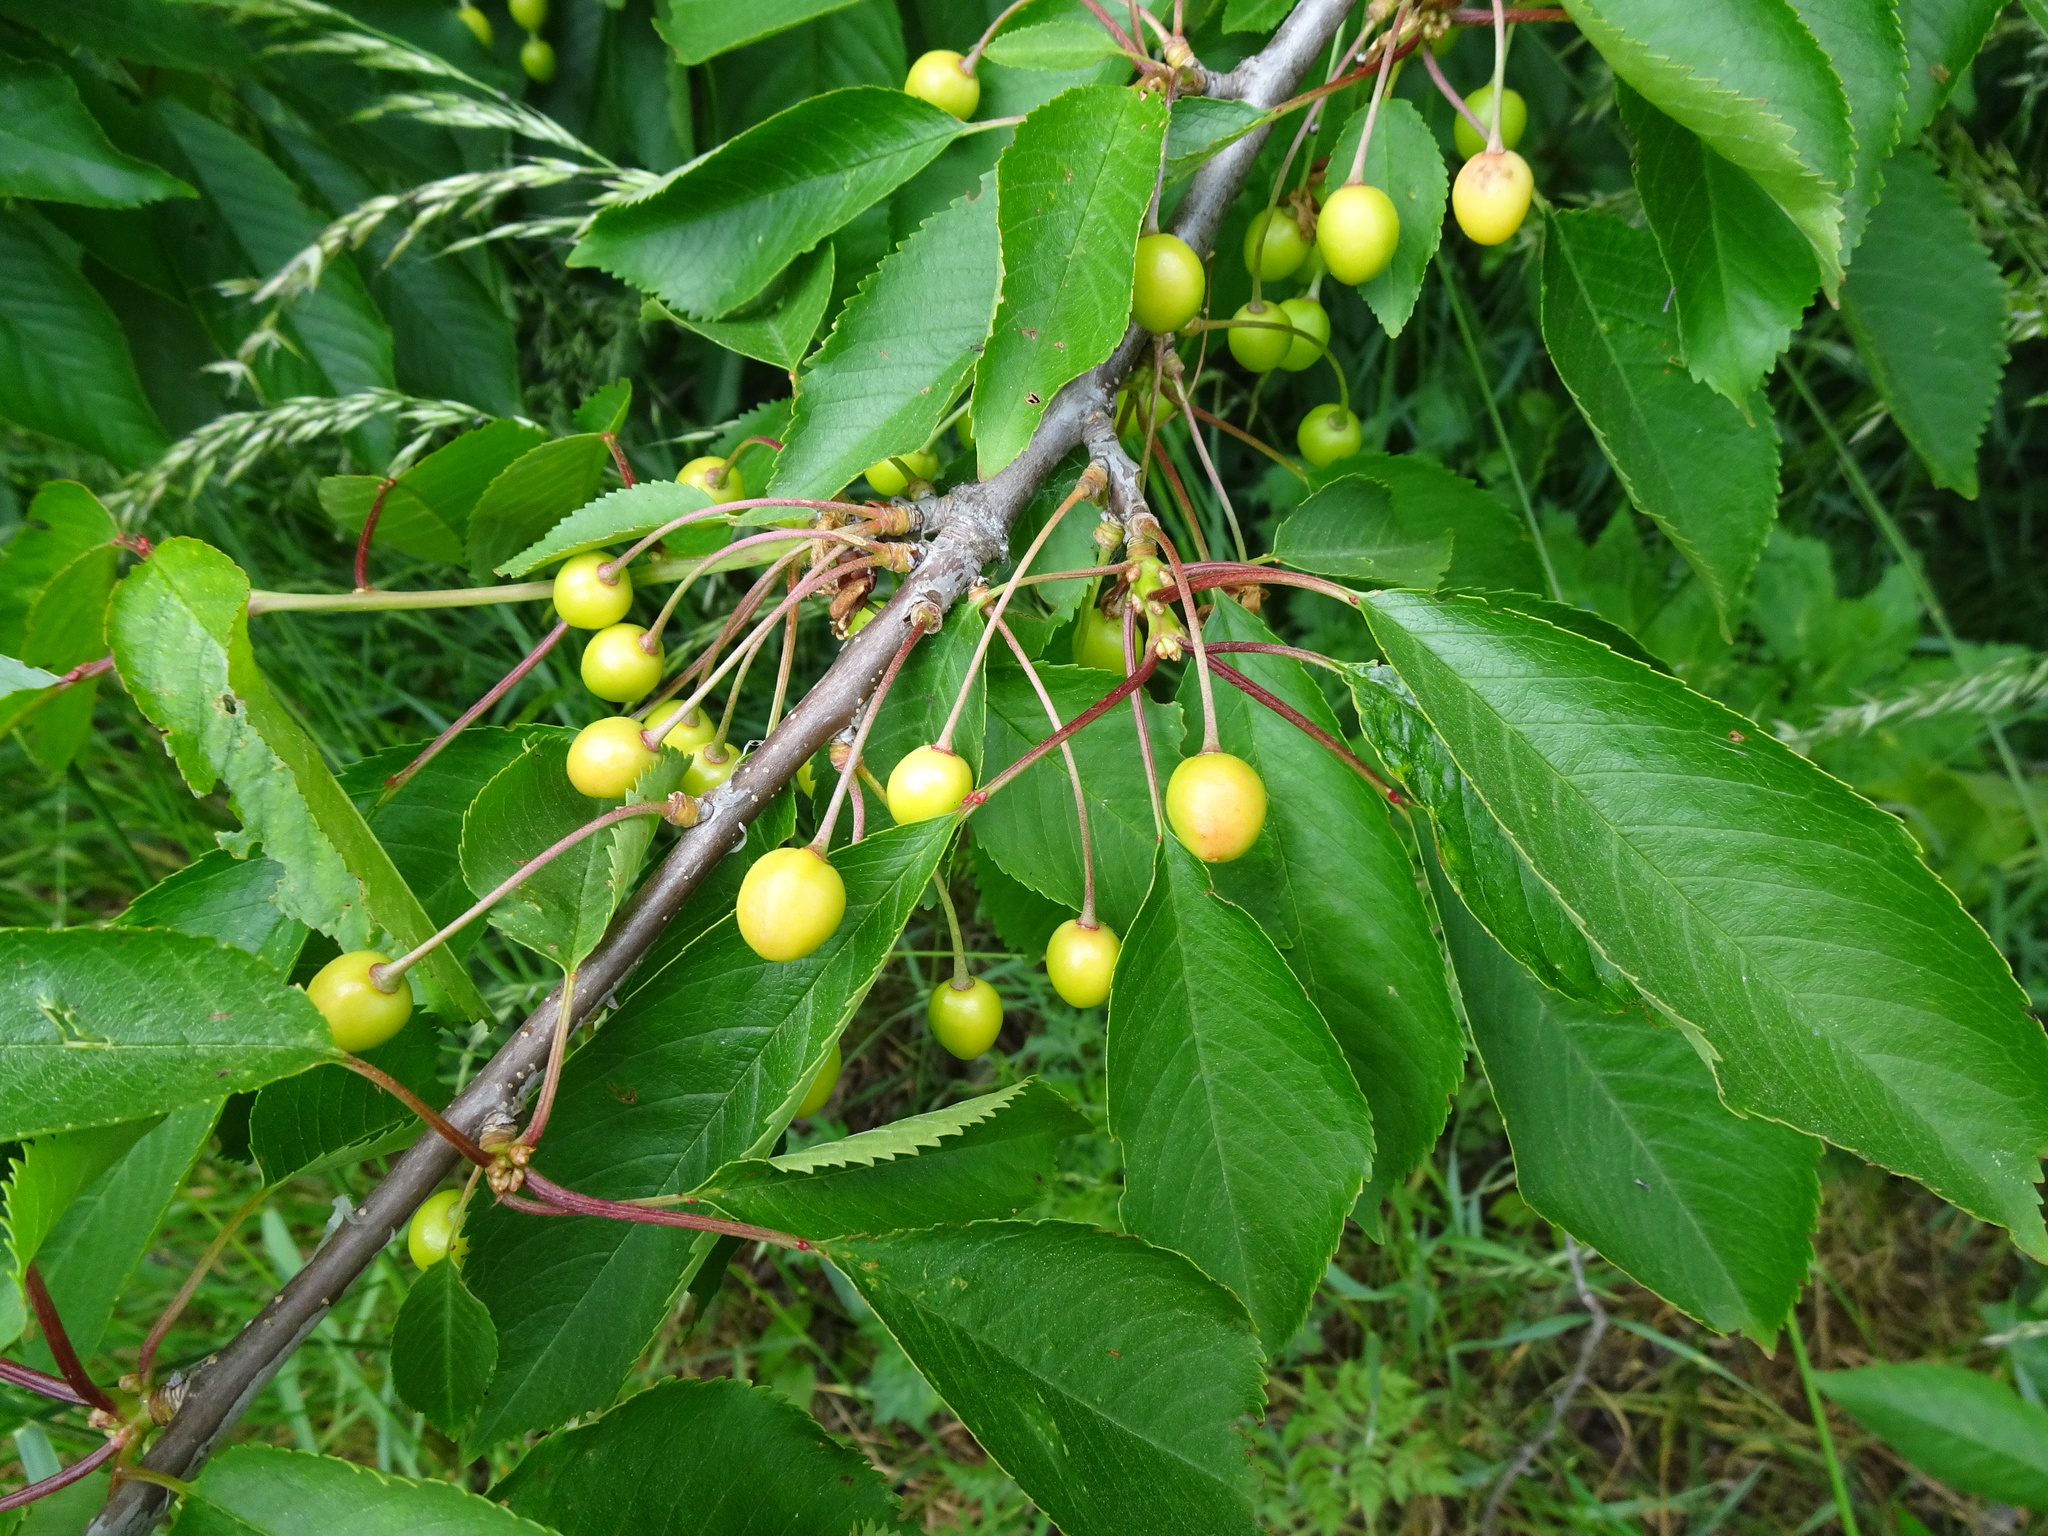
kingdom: Plantae
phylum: Tracheophyta
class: Magnoliopsida
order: Rosales
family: Rosaceae
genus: Prunus
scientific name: Prunus avium
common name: Sweet cherry
